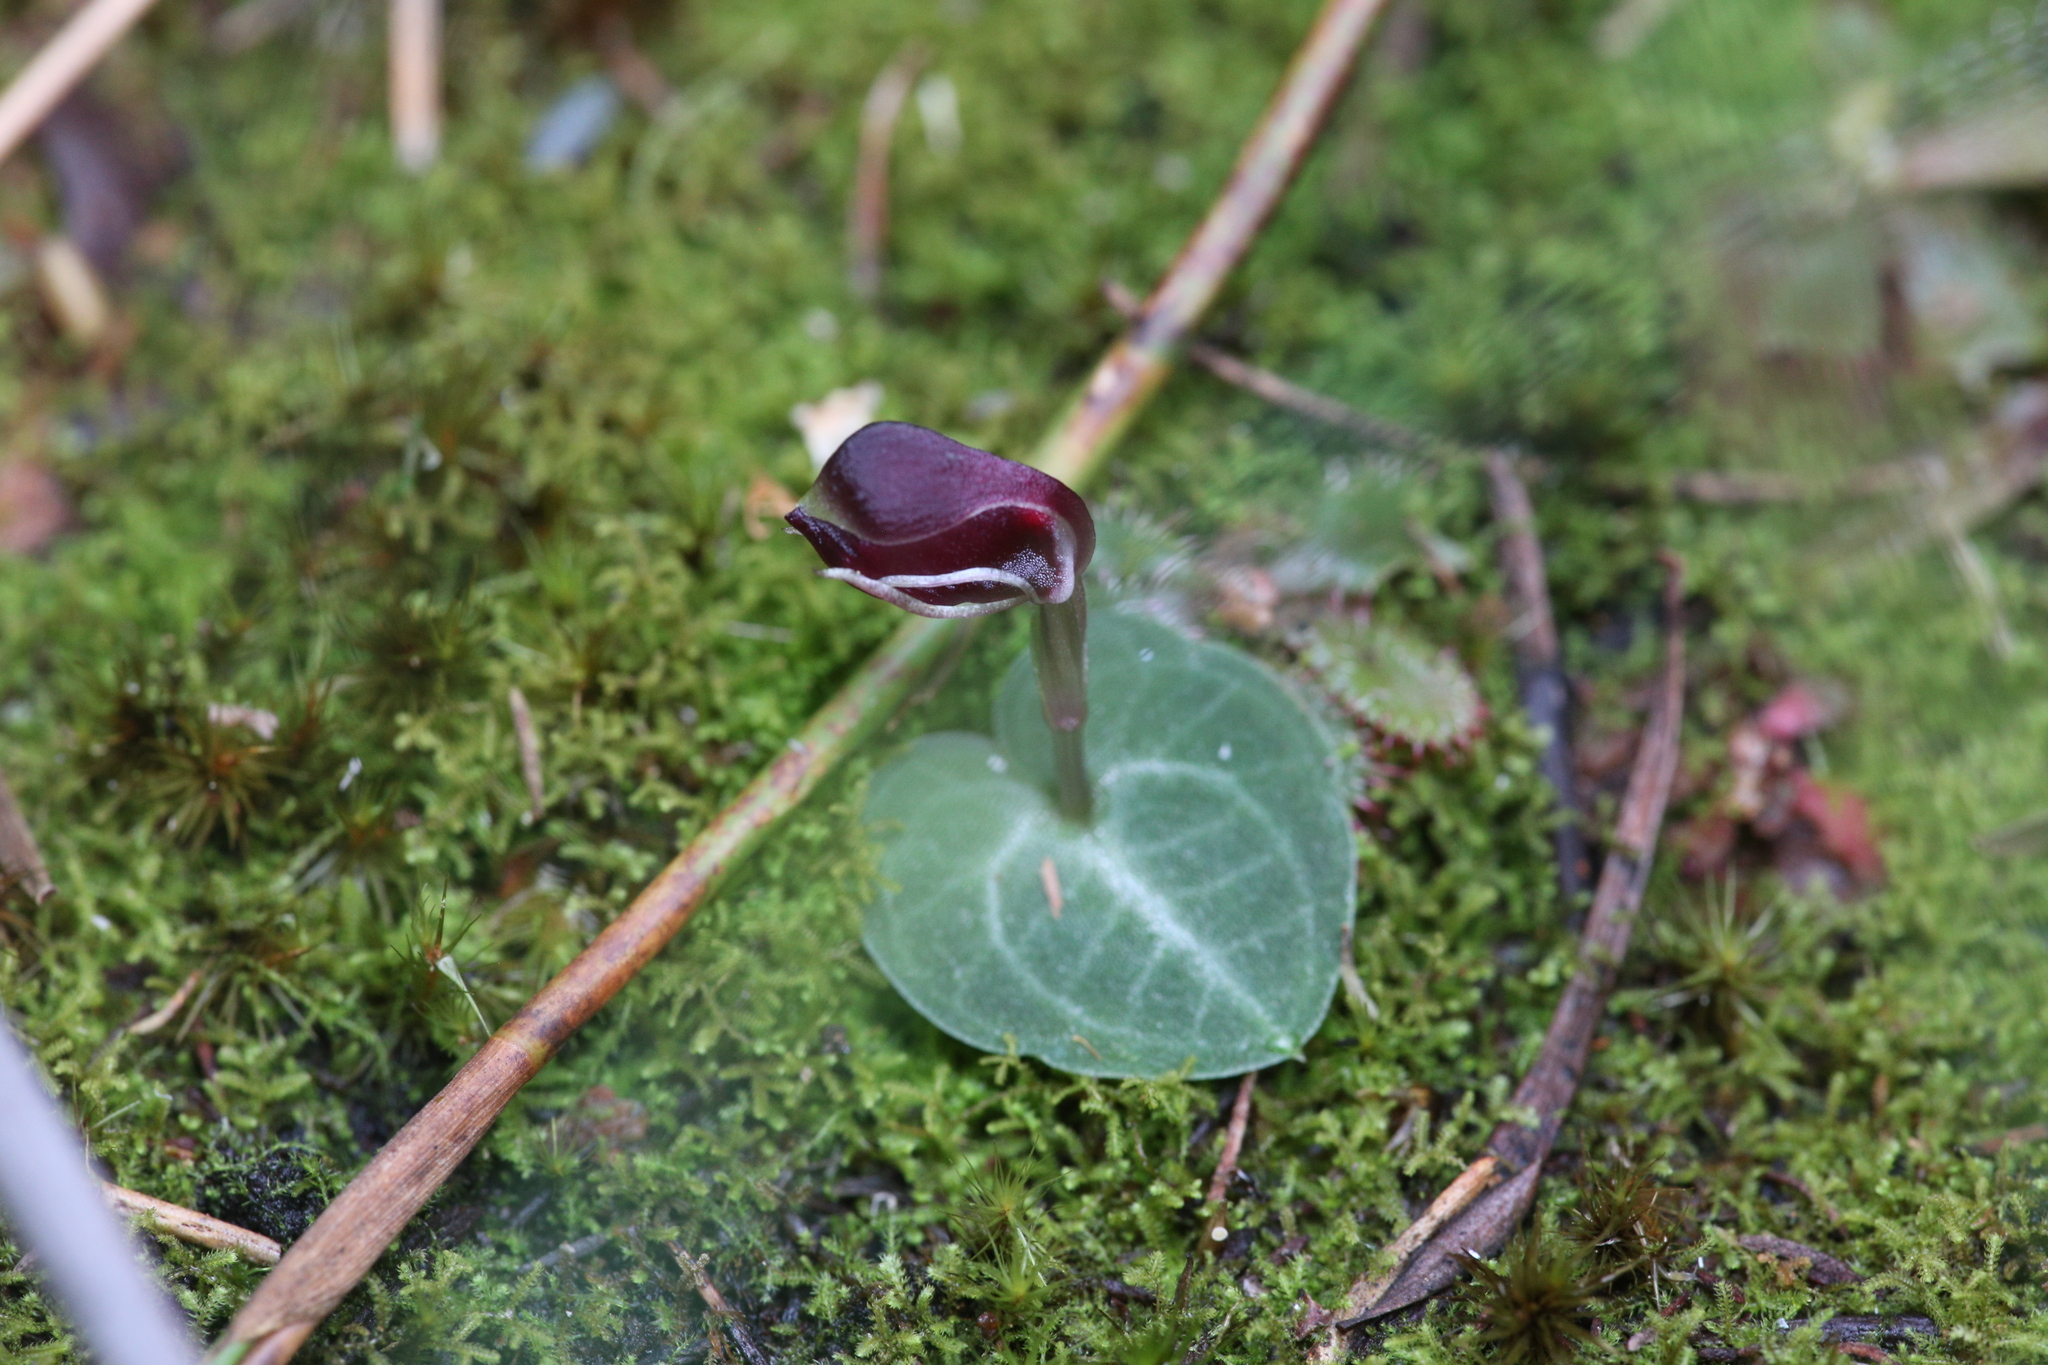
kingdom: Plantae
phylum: Tracheophyta
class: Liliopsida
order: Asparagales
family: Orchidaceae
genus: Corybas
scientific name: Corybas abditus
